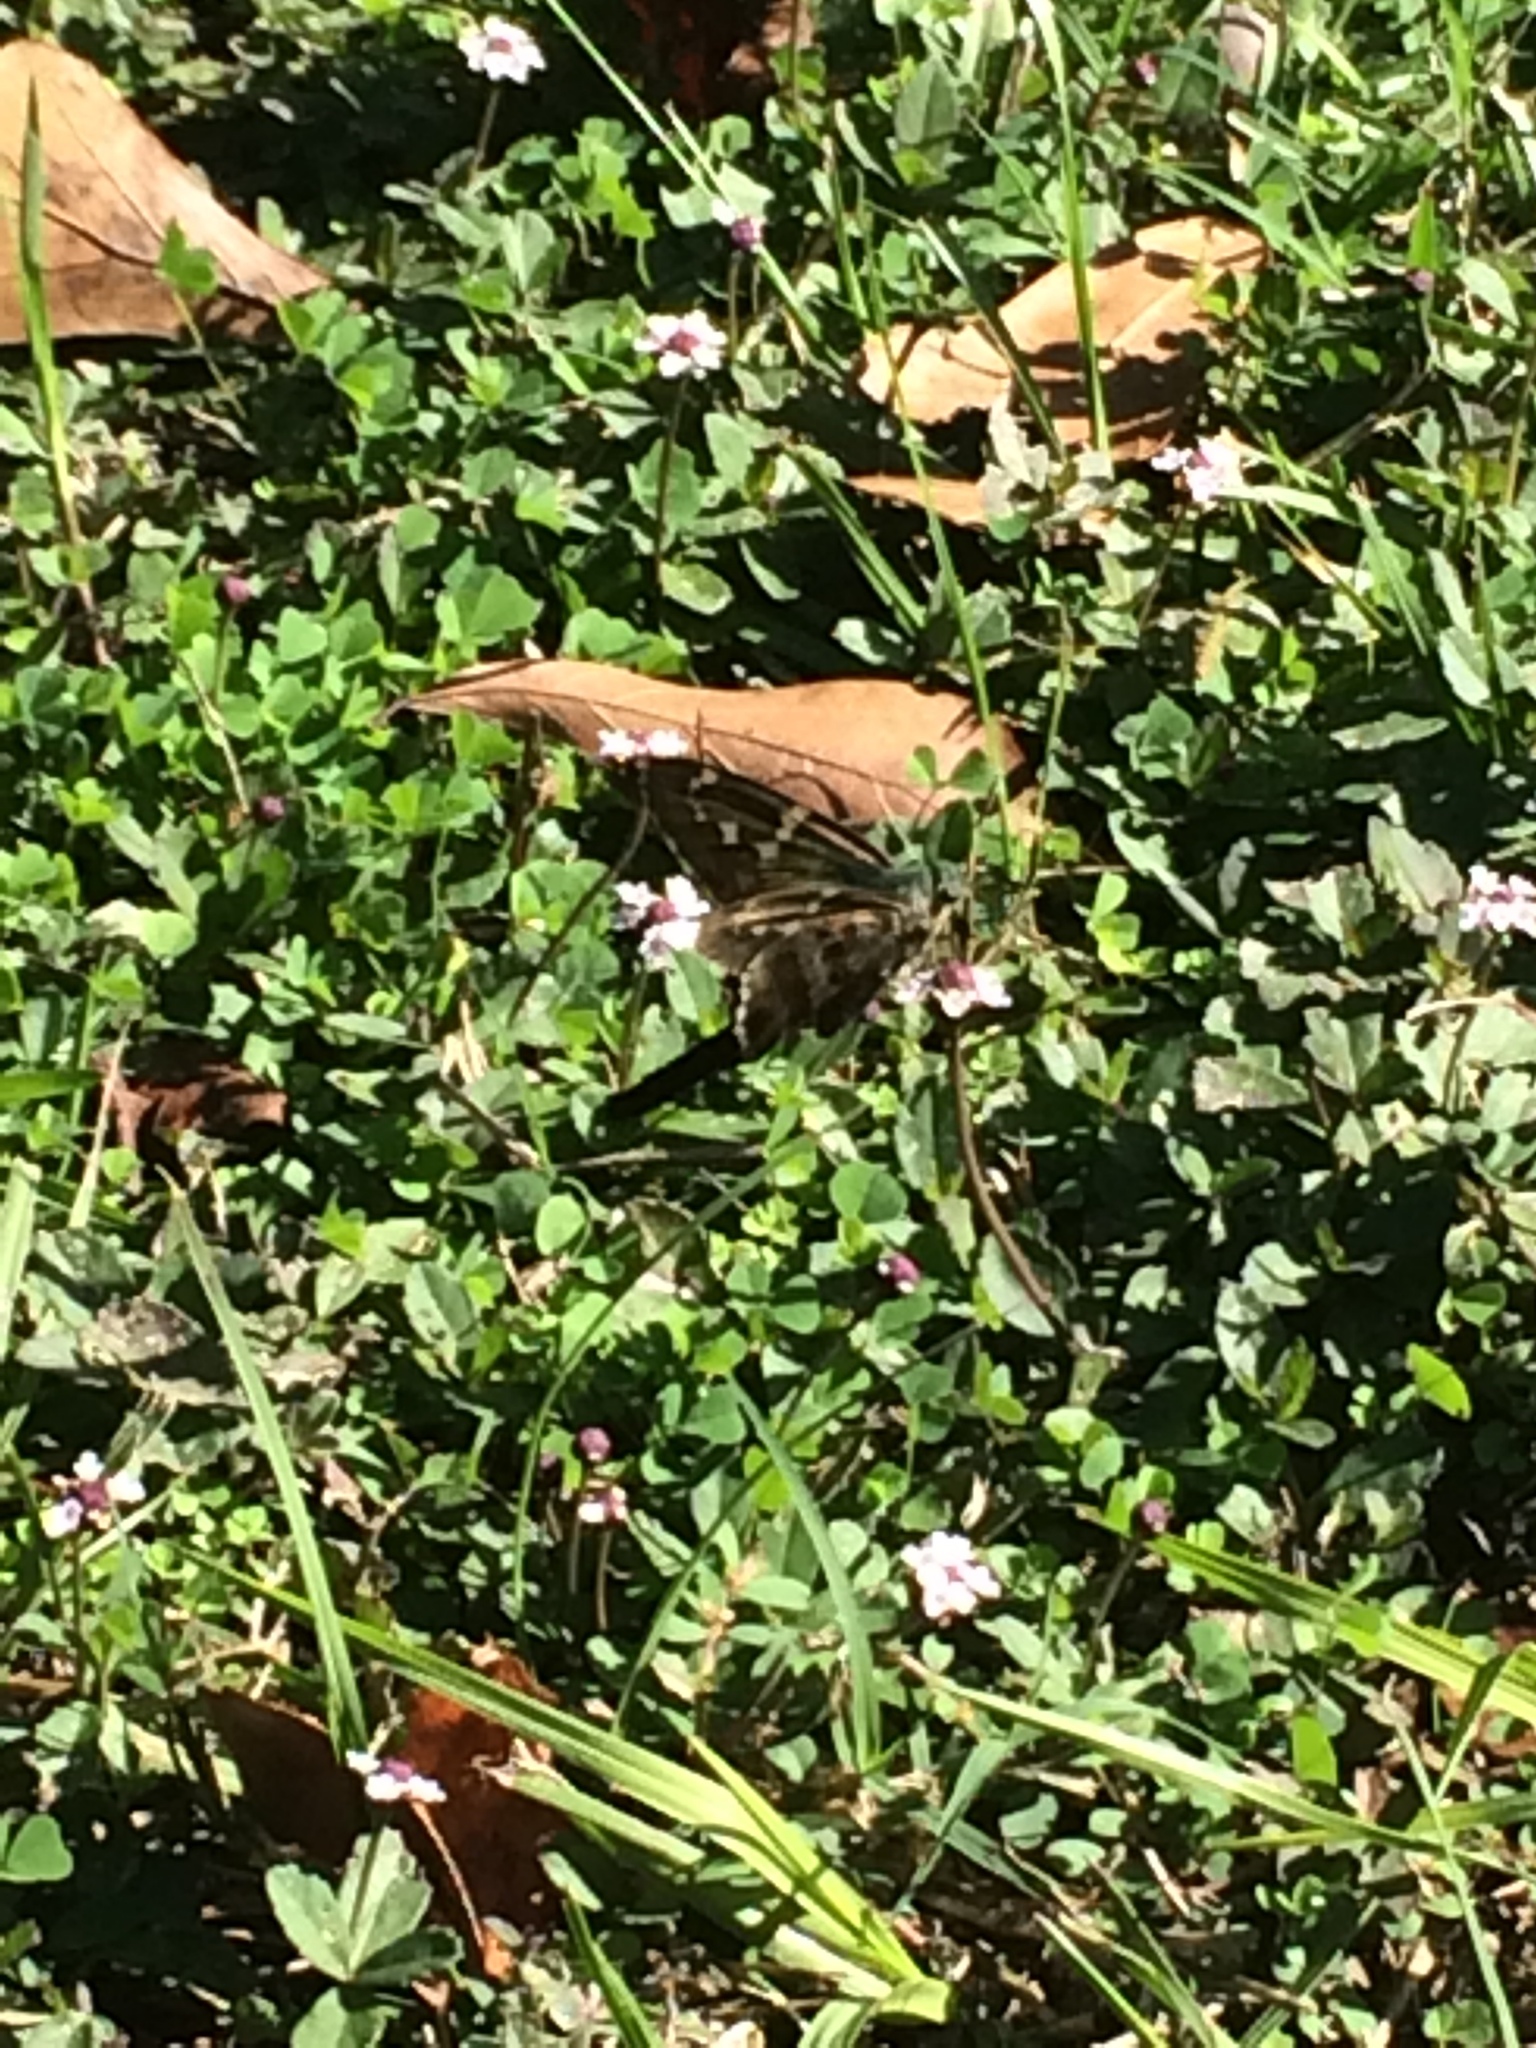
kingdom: Animalia
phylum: Arthropoda
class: Insecta
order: Lepidoptera
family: Hesperiidae
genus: Urbanus
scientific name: Urbanus proteus
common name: Long-tailed skipper
